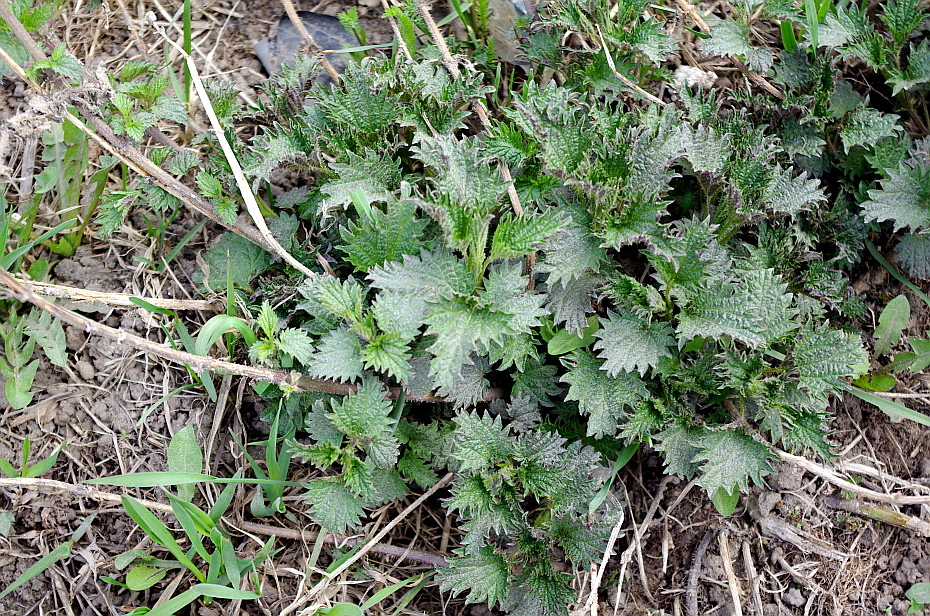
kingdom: Plantae
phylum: Tracheophyta
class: Magnoliopsida
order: Rosales
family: Urticaceae
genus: Urtica
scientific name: Urtica dioica
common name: Common nettle
